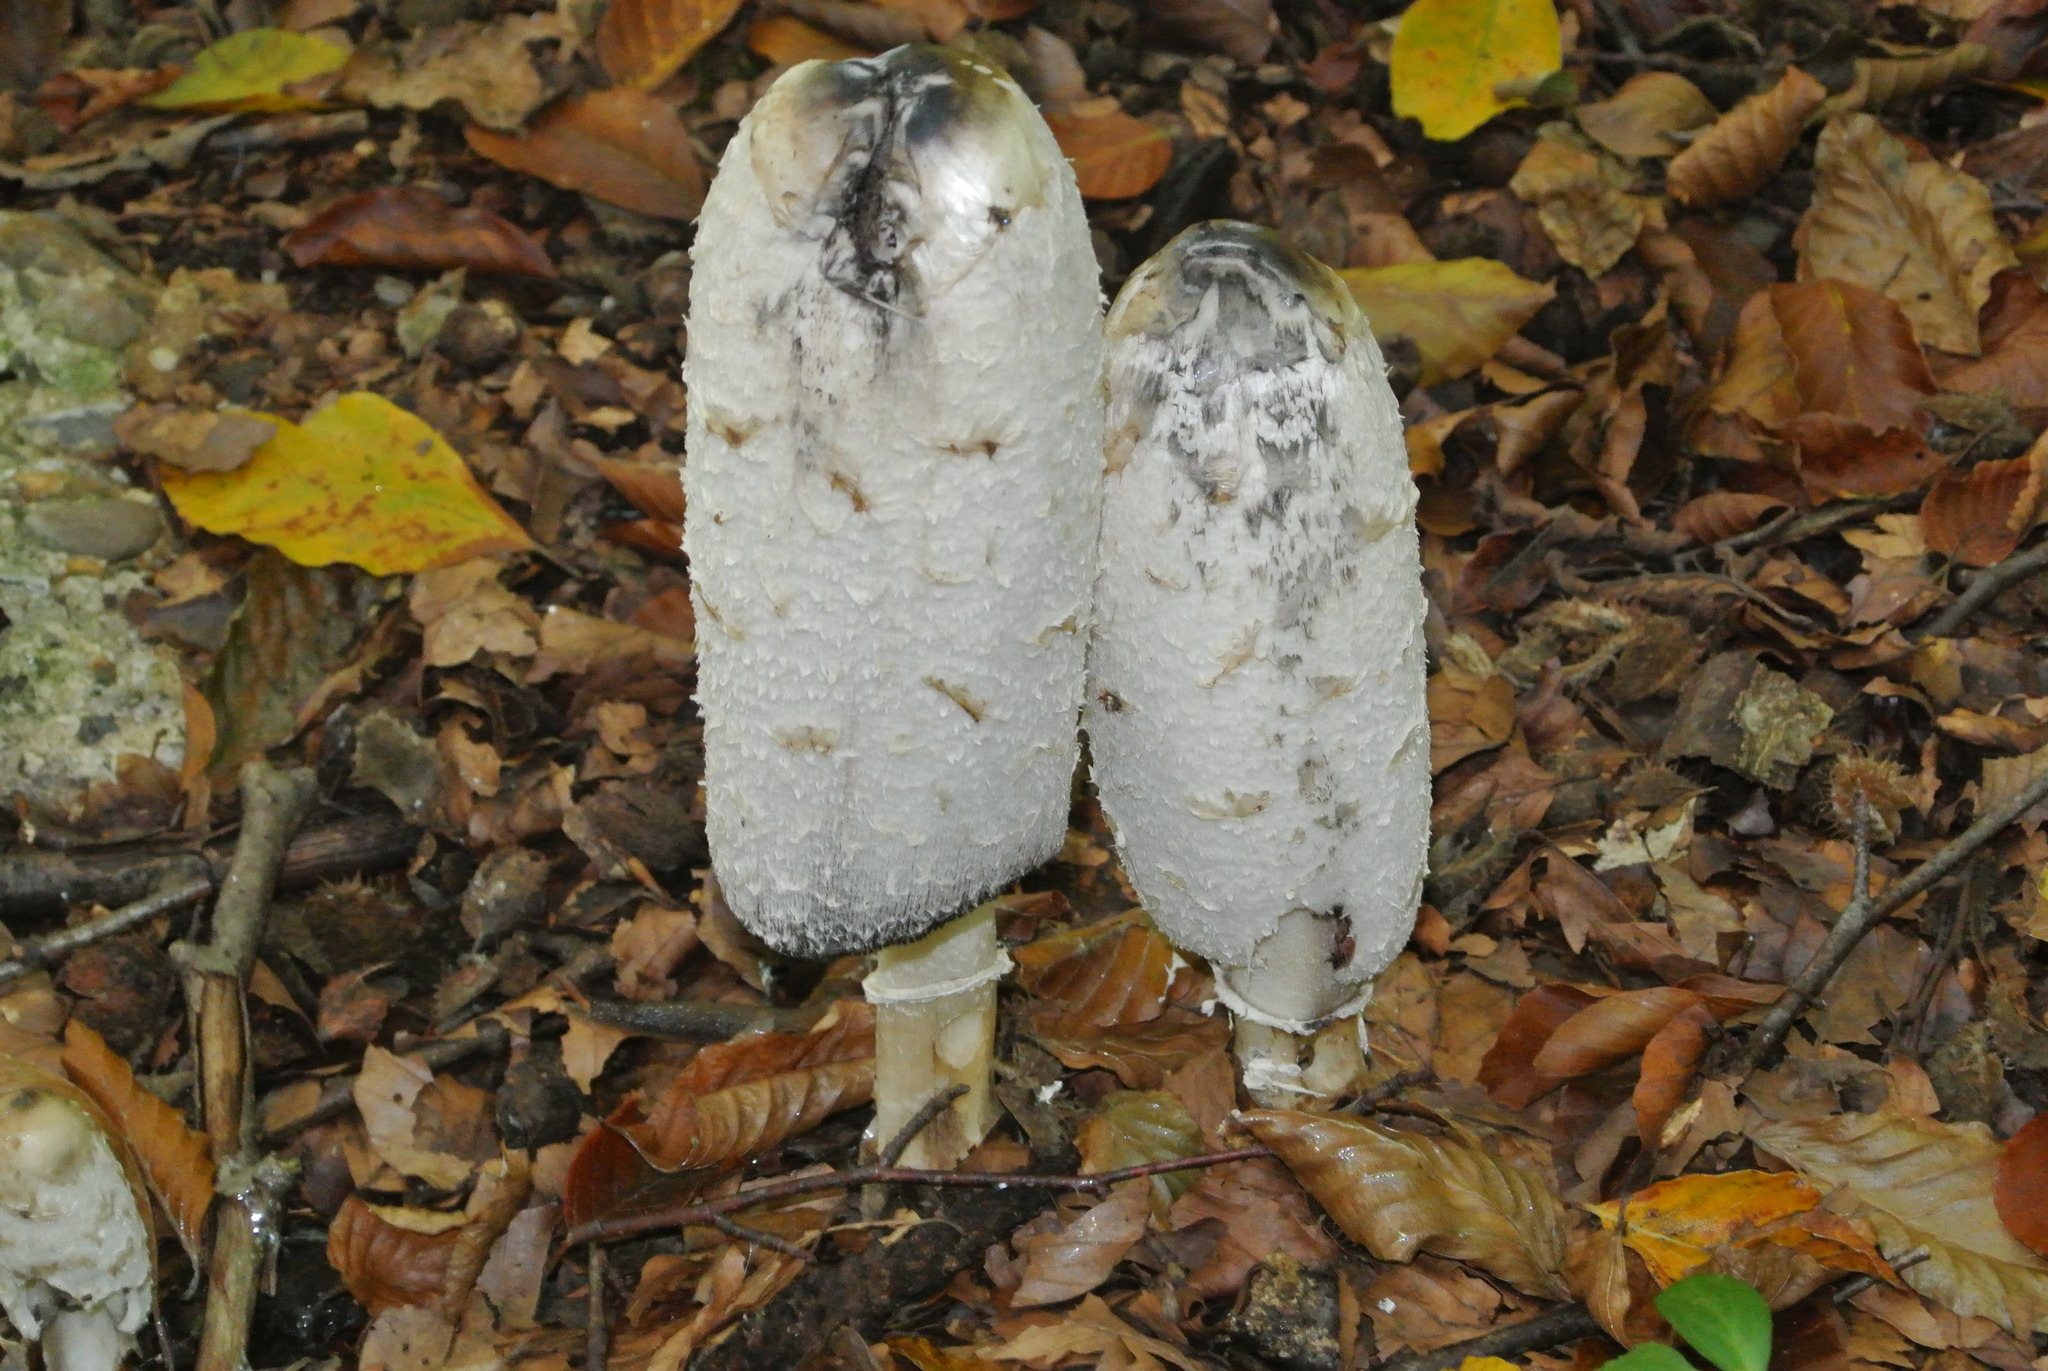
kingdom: Fungi
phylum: Basidiomycota
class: Agaricomycetes
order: Agaricales
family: Agaricaceae
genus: Coprinus
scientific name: Coprinus comatus
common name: Lawyer's wig
